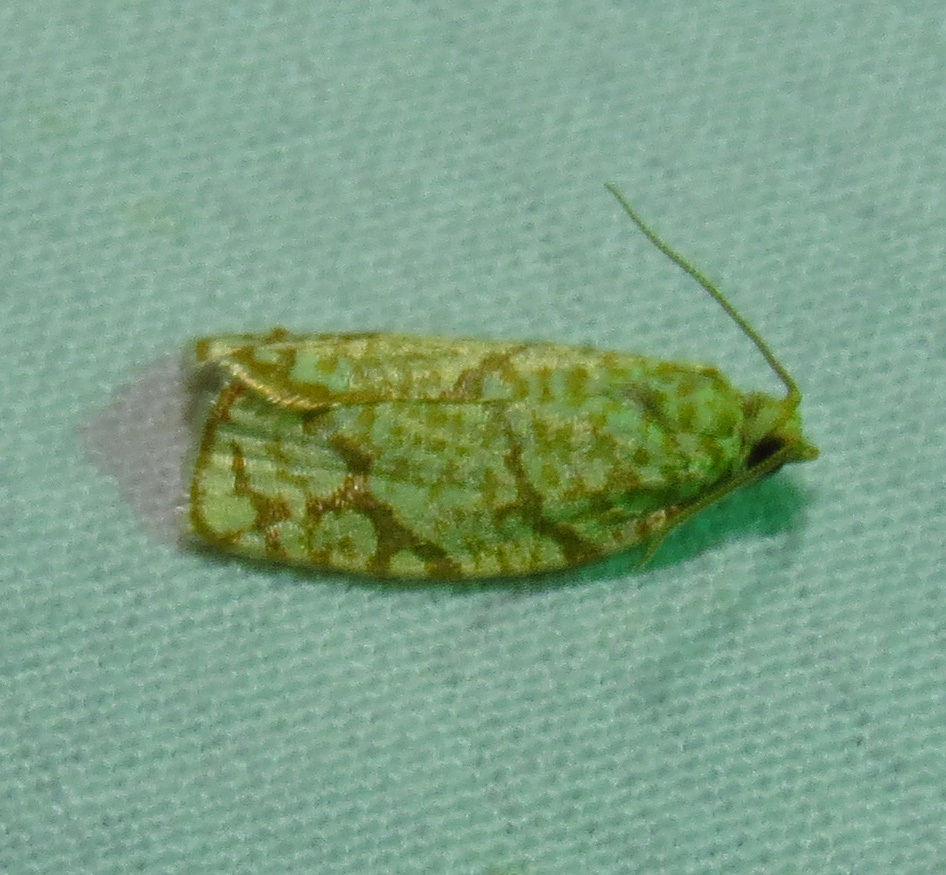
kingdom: Animalia
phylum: Arthropoda
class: Insecta
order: Lepidoptera
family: Tortricidae
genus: Argyrotaenia
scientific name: Argyrotaenia quercifoliana
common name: Yellow-winged oak leafroller moth
